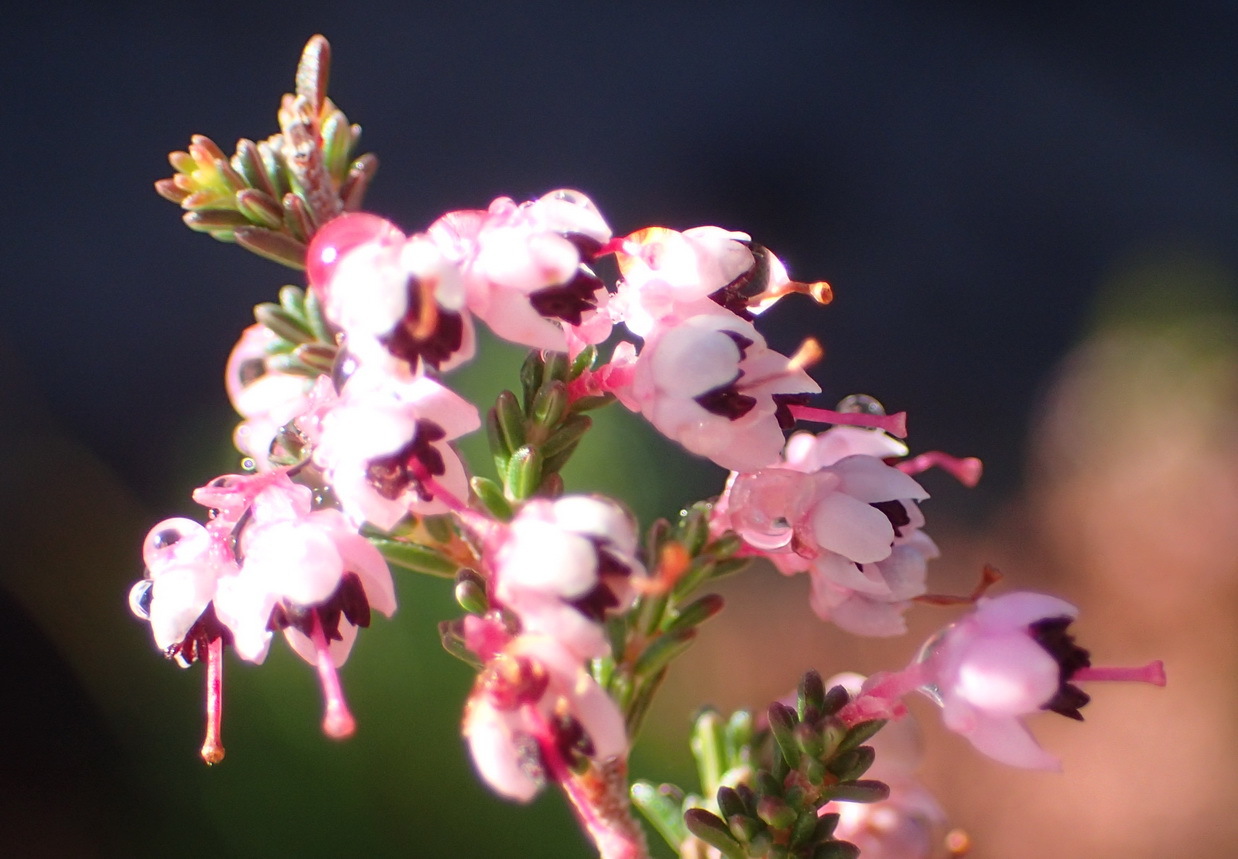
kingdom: Plantae
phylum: Tracheophyta
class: Magnoliopsida
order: Ericales
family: Ericaceae
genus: Erica
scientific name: Erica sparsa
